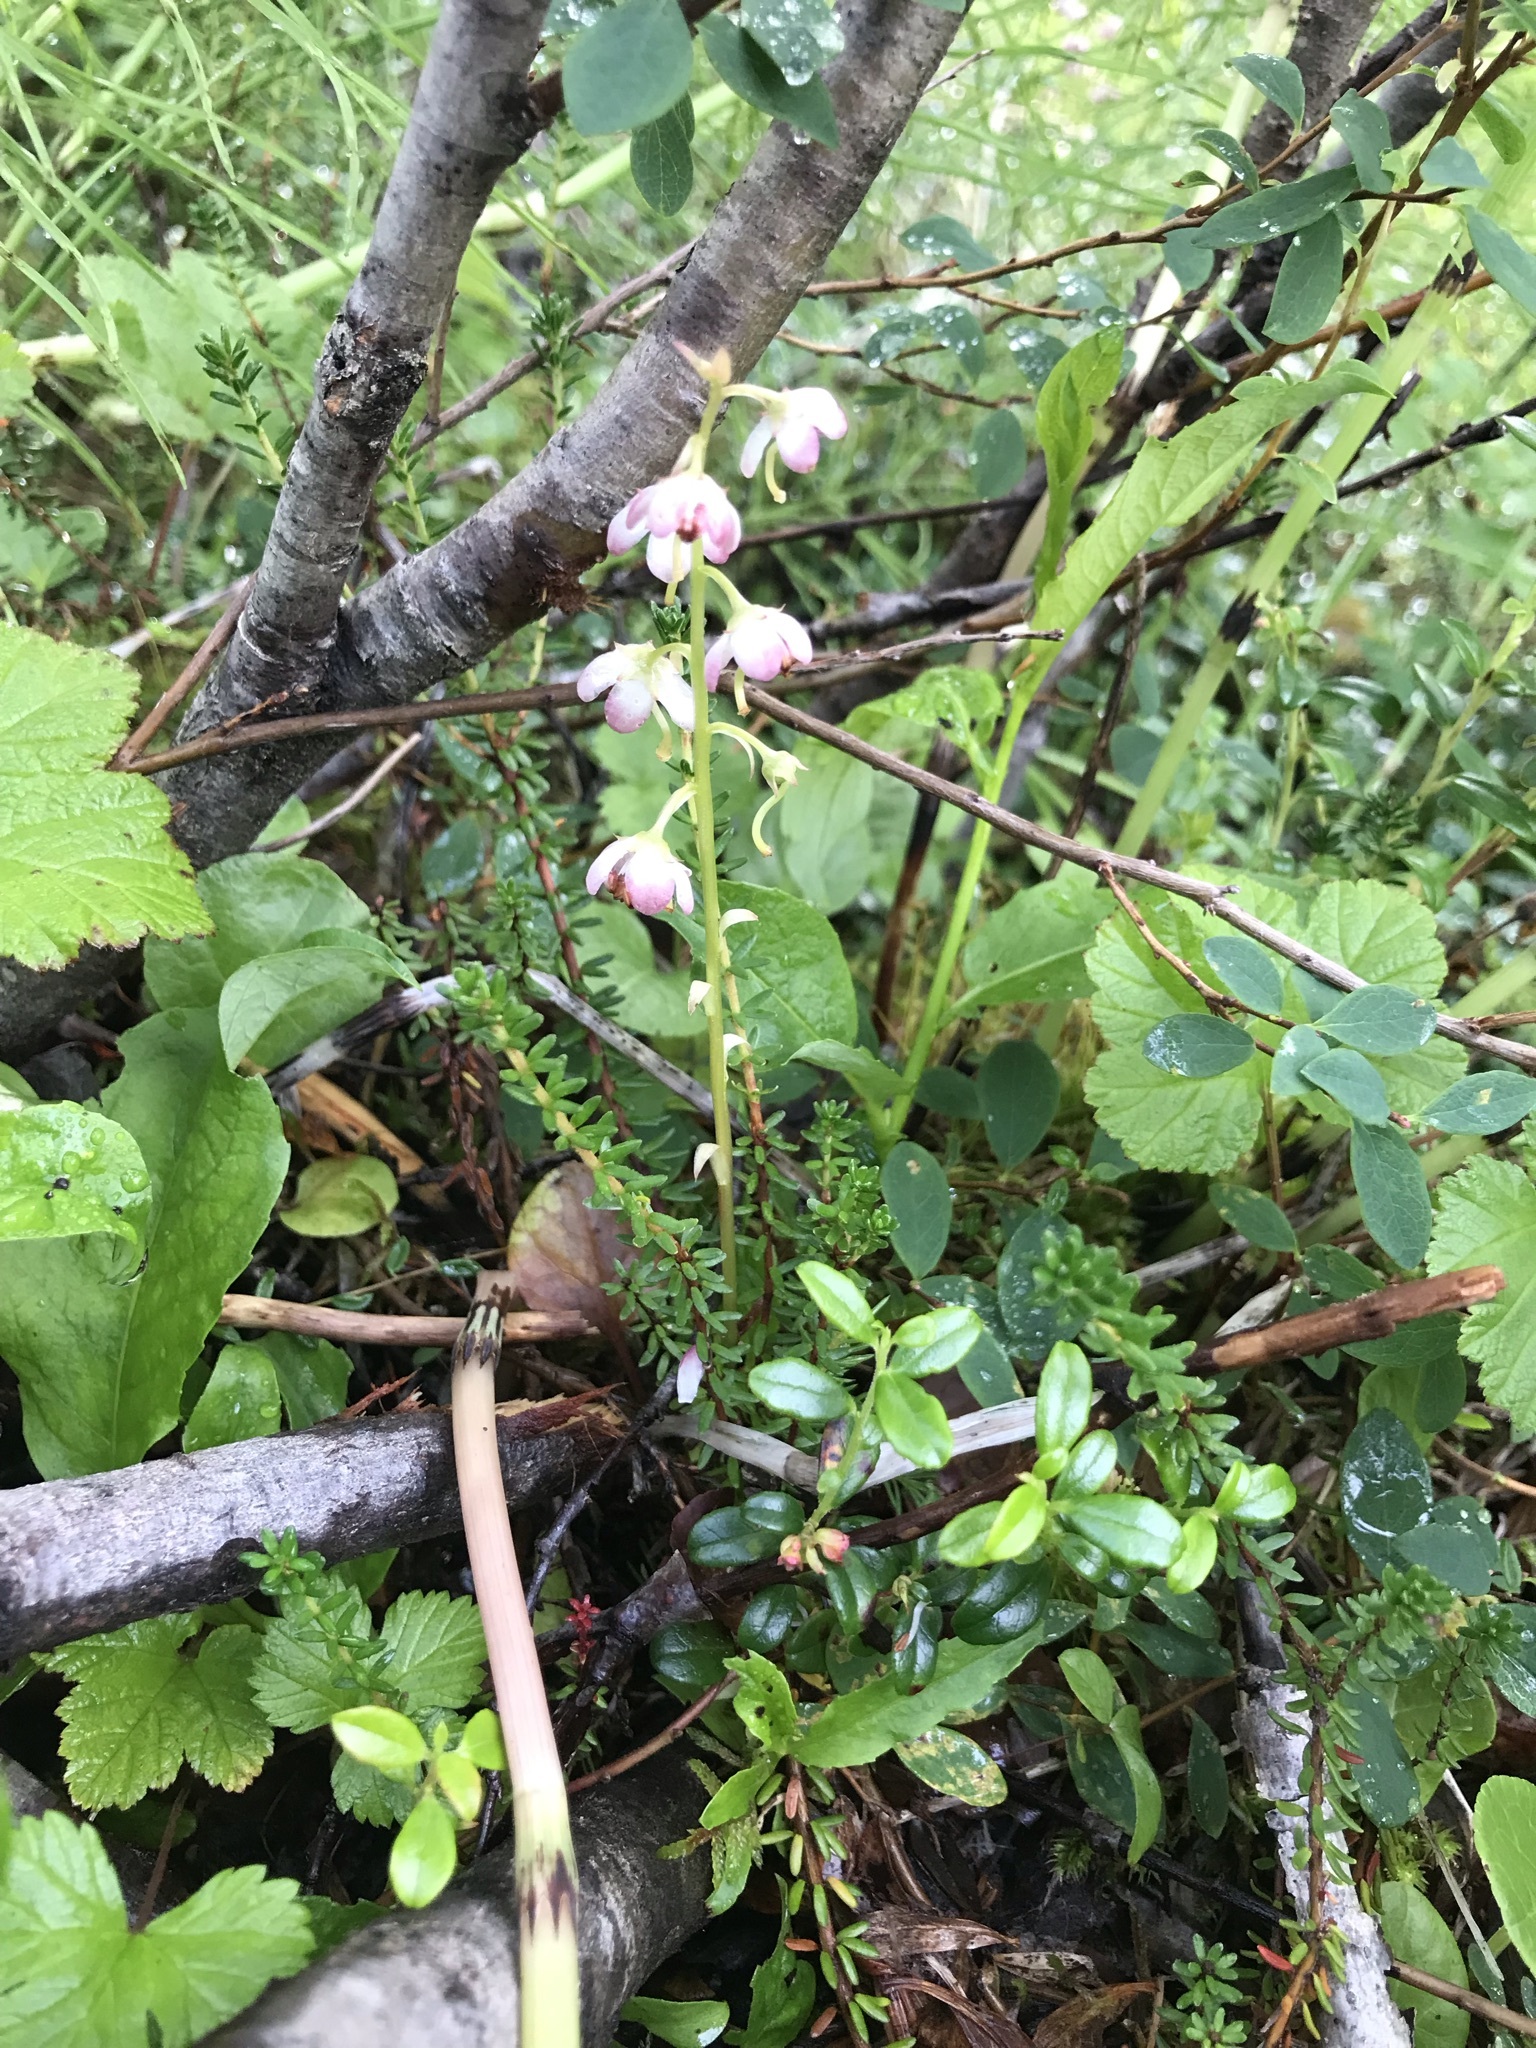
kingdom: Plantae
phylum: Tracheophyta
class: Magnoliopsida
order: Ericales
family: Ericaceae
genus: Pyrola
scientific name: Pyrola asarifolia
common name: Bog wintergreen
